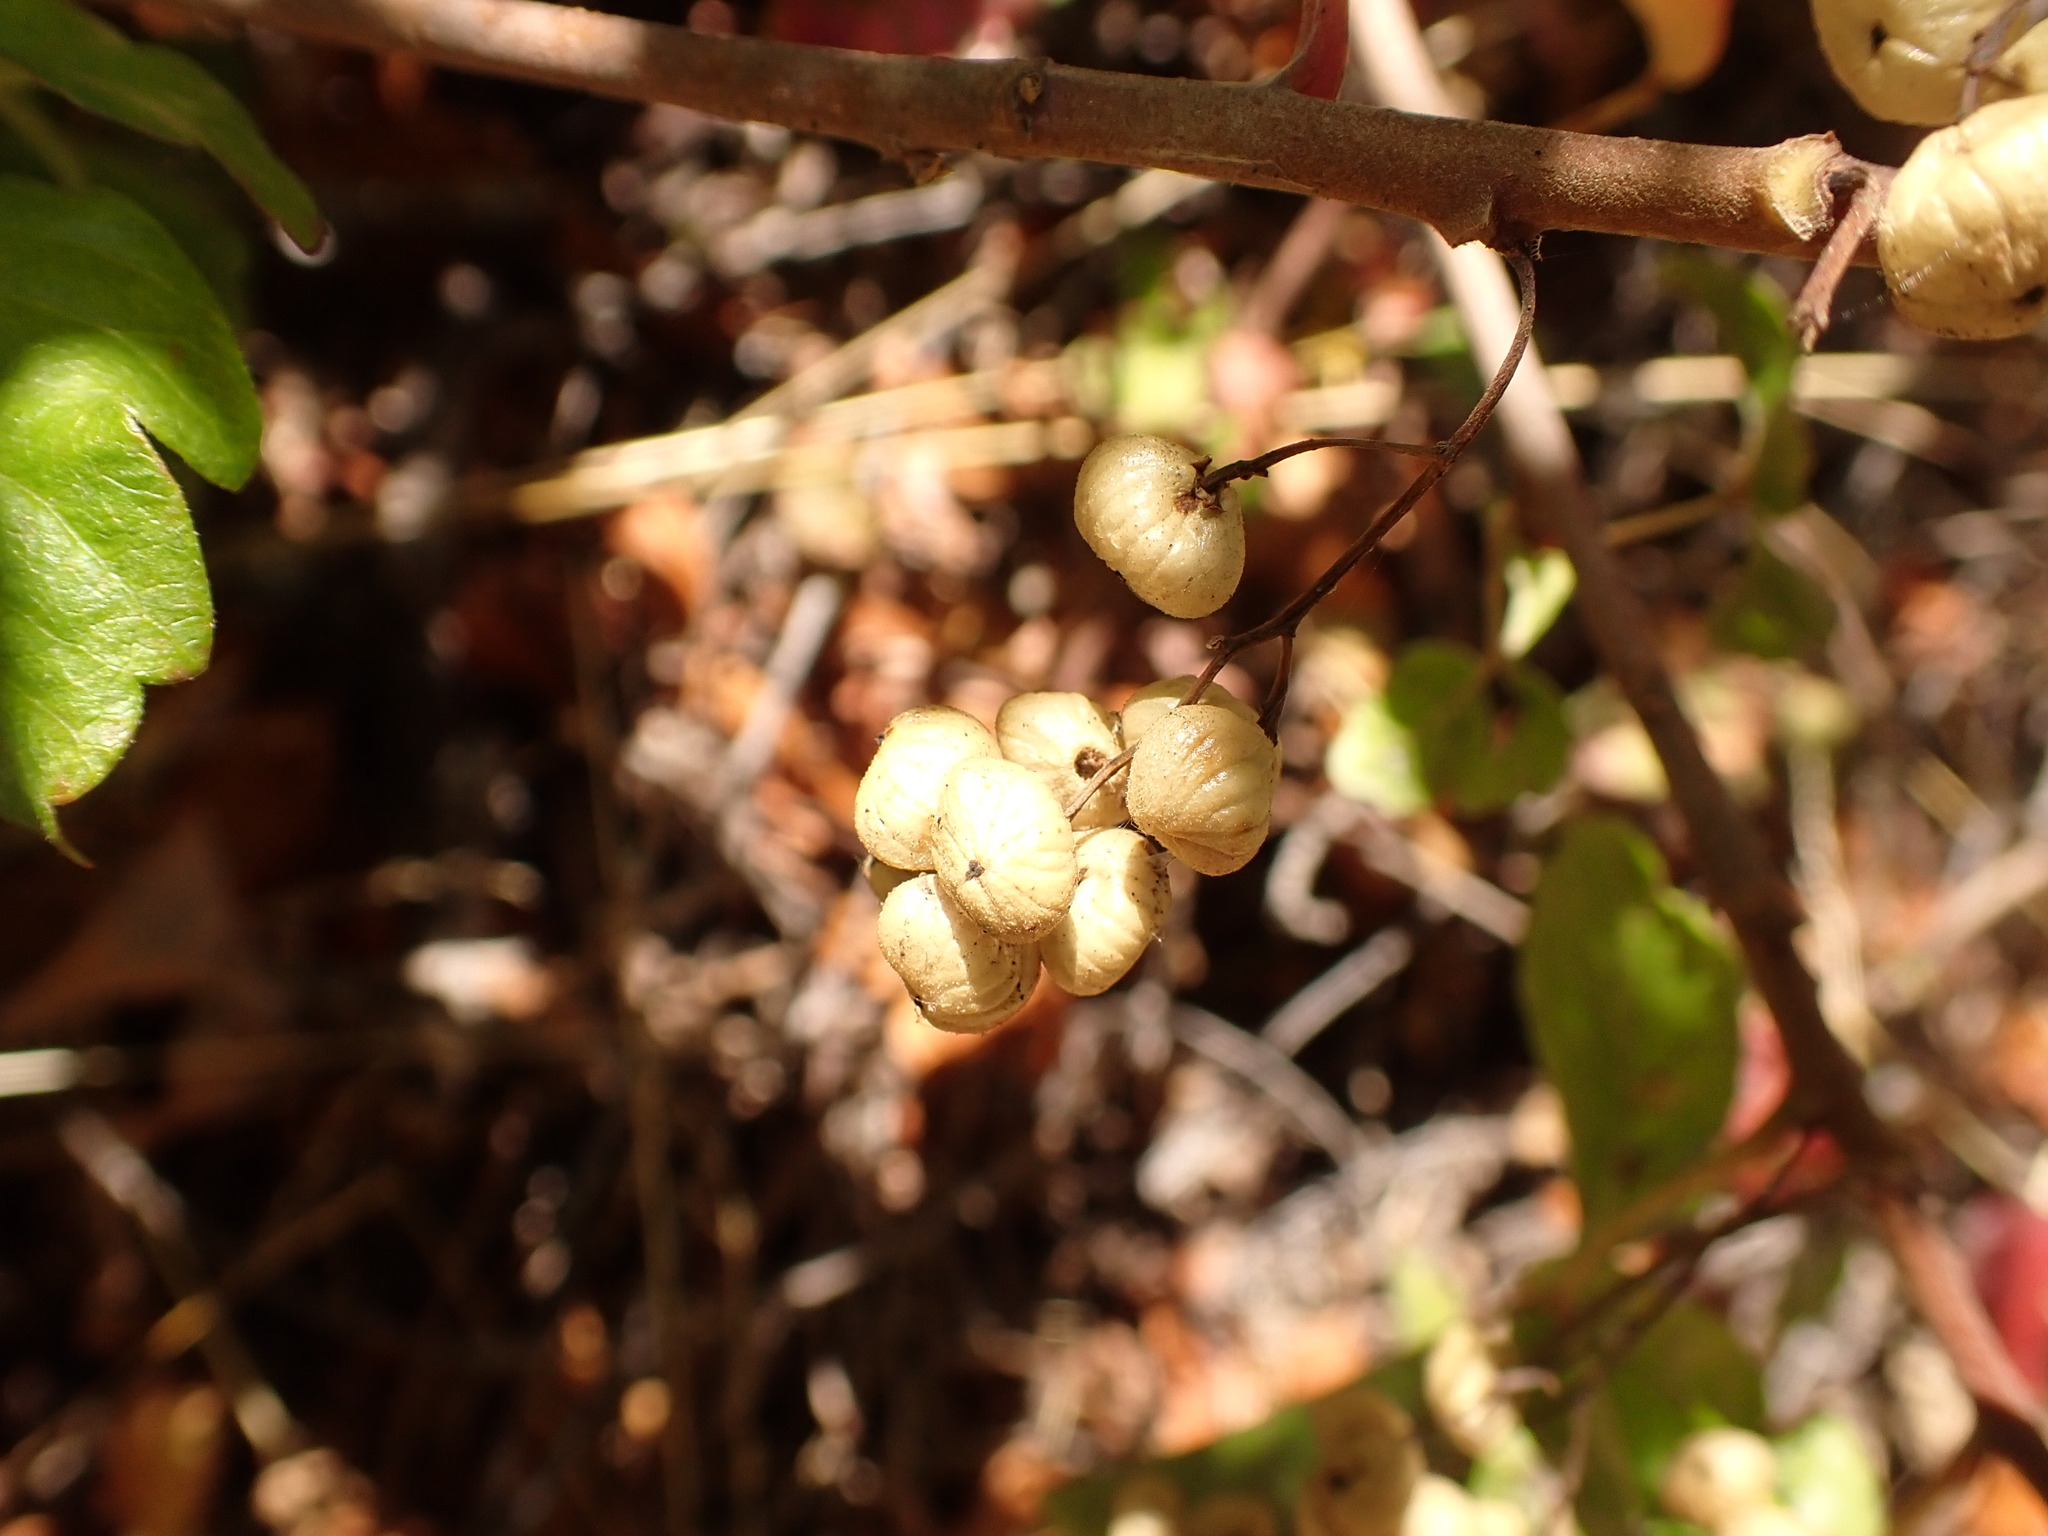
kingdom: Plantae
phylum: Tracheophyta
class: Magnoliopsida
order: Sapindales
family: Anacardiaceae
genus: Toxicodendron
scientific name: Toxicodendron diversilobum
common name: Pacific poison-oak
